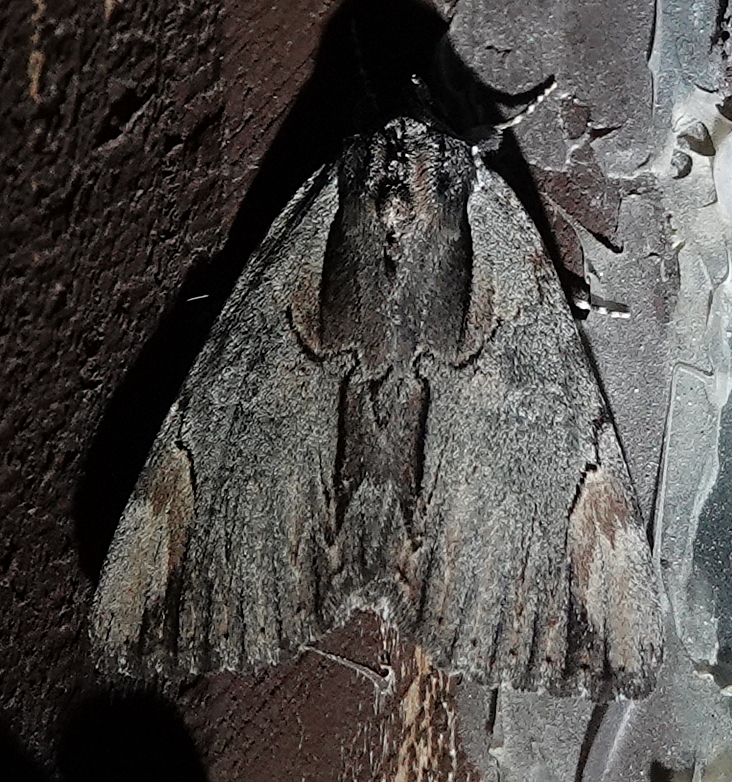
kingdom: Animalia
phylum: Arthropoda
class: Insecta
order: Lepidoptera
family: Erebidae
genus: Catocala
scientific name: Catocala ultronia
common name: Ultronia underwing
